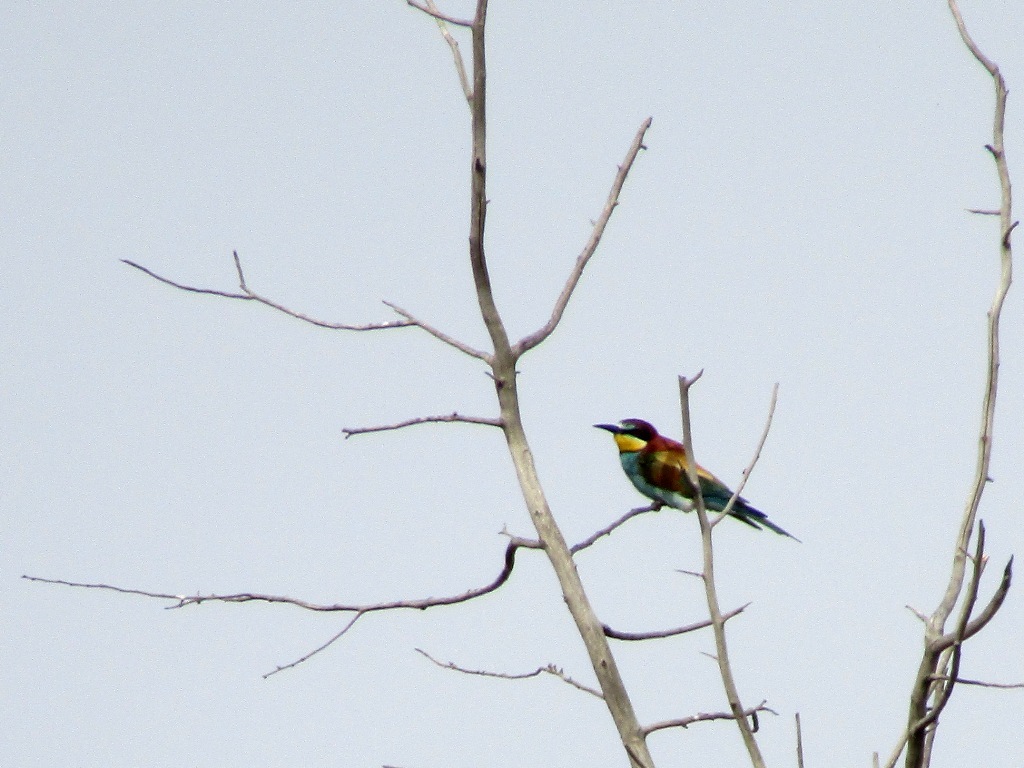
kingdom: Animalia
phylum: Chordata
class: Aves
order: Coraciiformes
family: Meropidae
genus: Merops
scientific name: Merops apiaster
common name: European bee-eater
